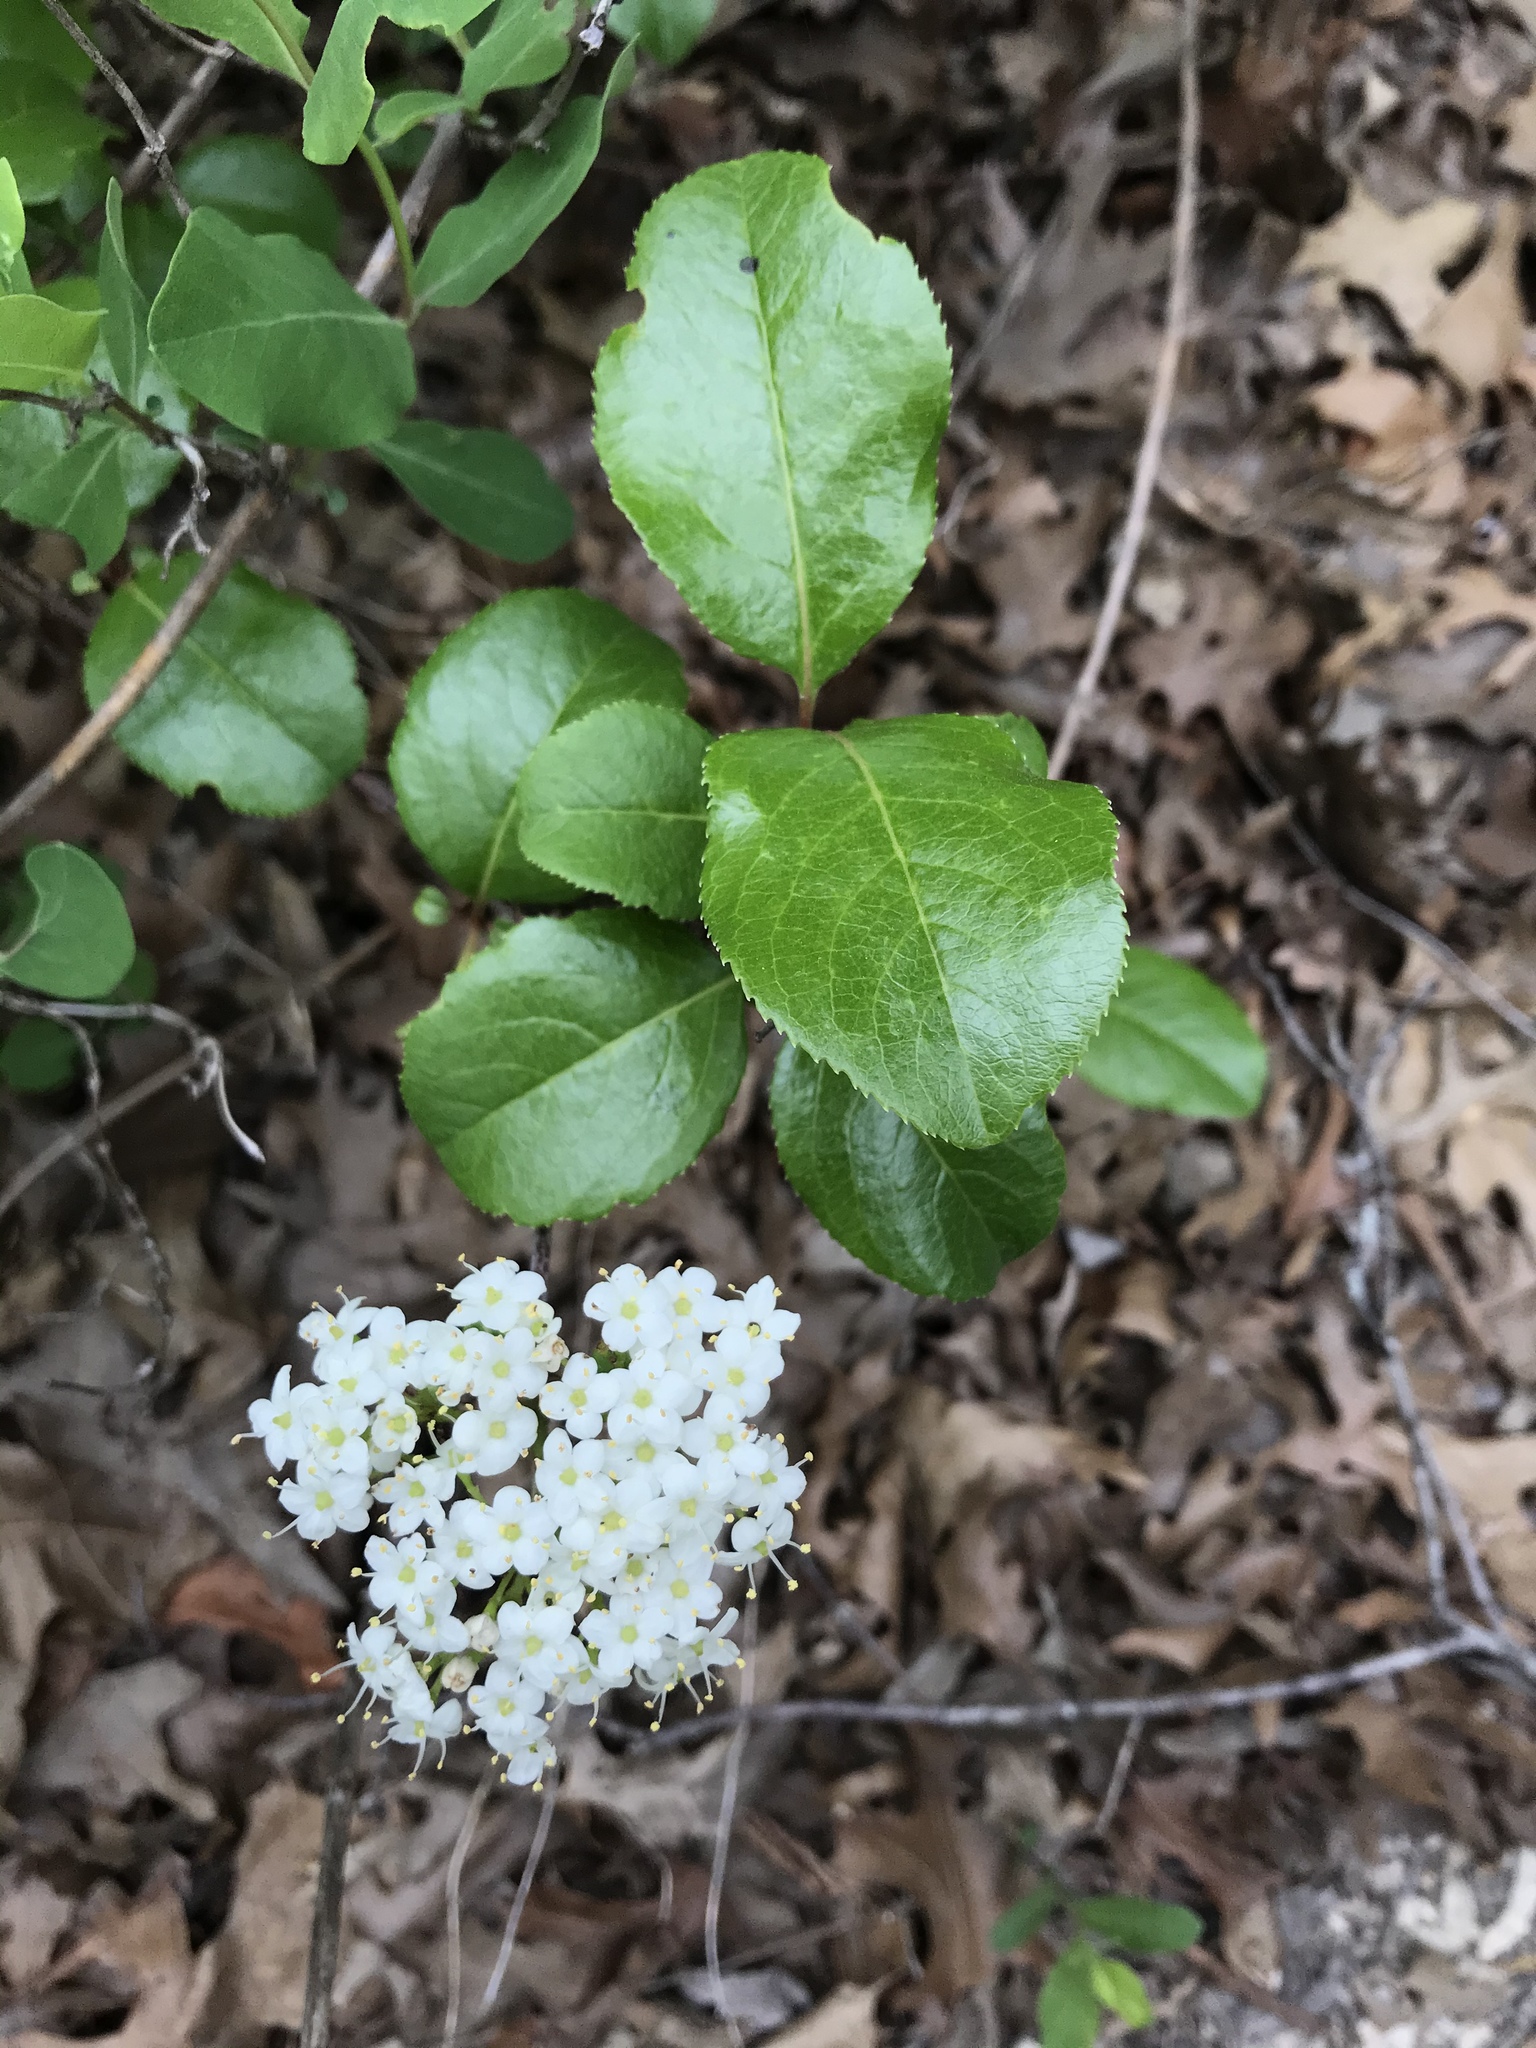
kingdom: Plantae
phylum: Tracheophyta
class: Magnoliopsida
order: Dipsacales
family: Viburnaceae
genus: Viburnum
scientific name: Viburnum rufidulum
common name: Blue haw
